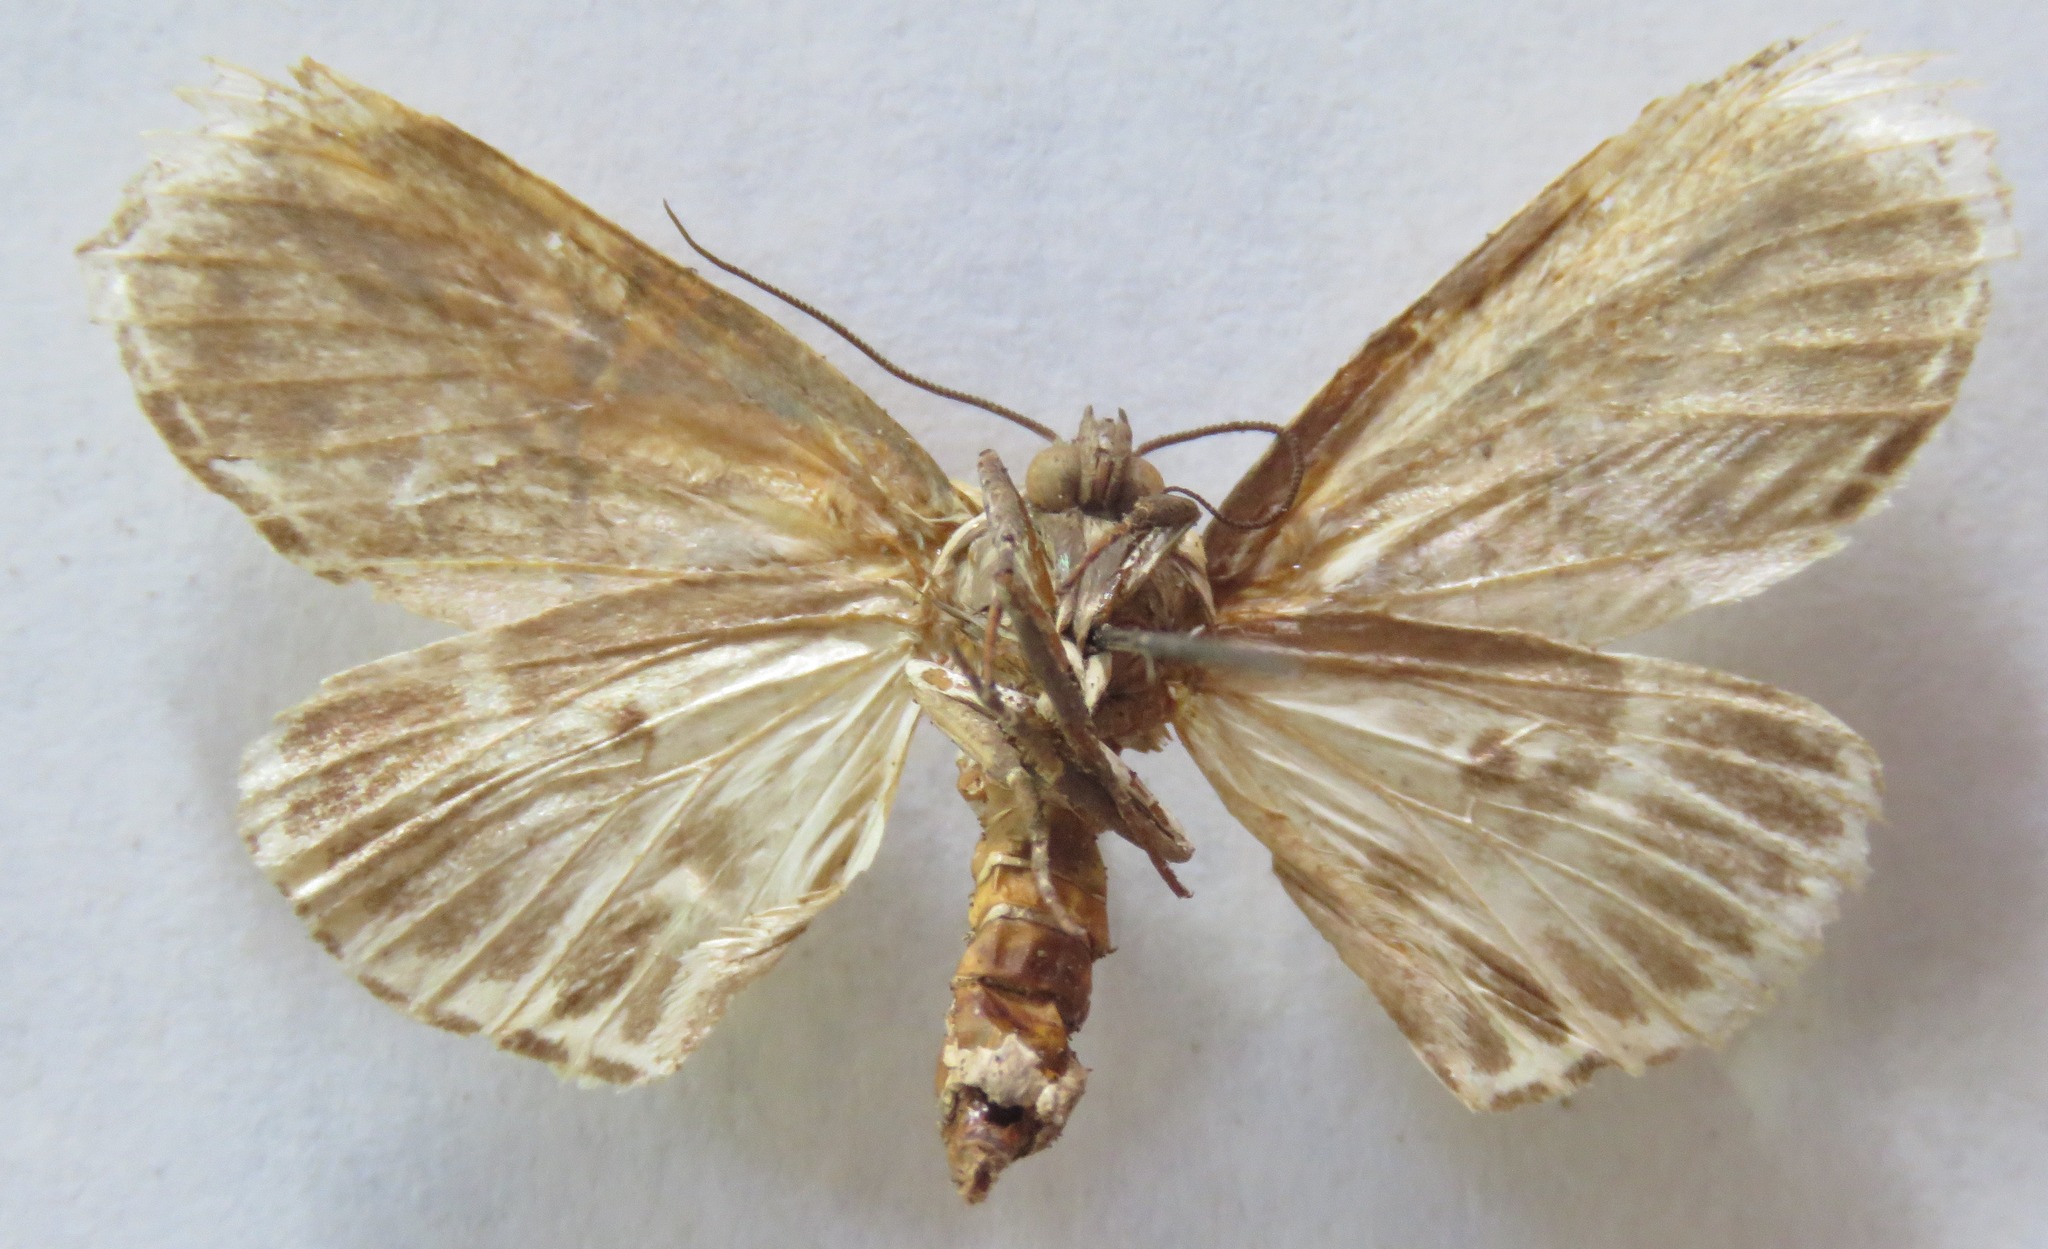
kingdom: Animalia
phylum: Arthropoda
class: Insecta
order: Lepidoptera
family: Erebidae
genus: Diphthera
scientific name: Diphthera festiva
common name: Hieroglyphic moth
